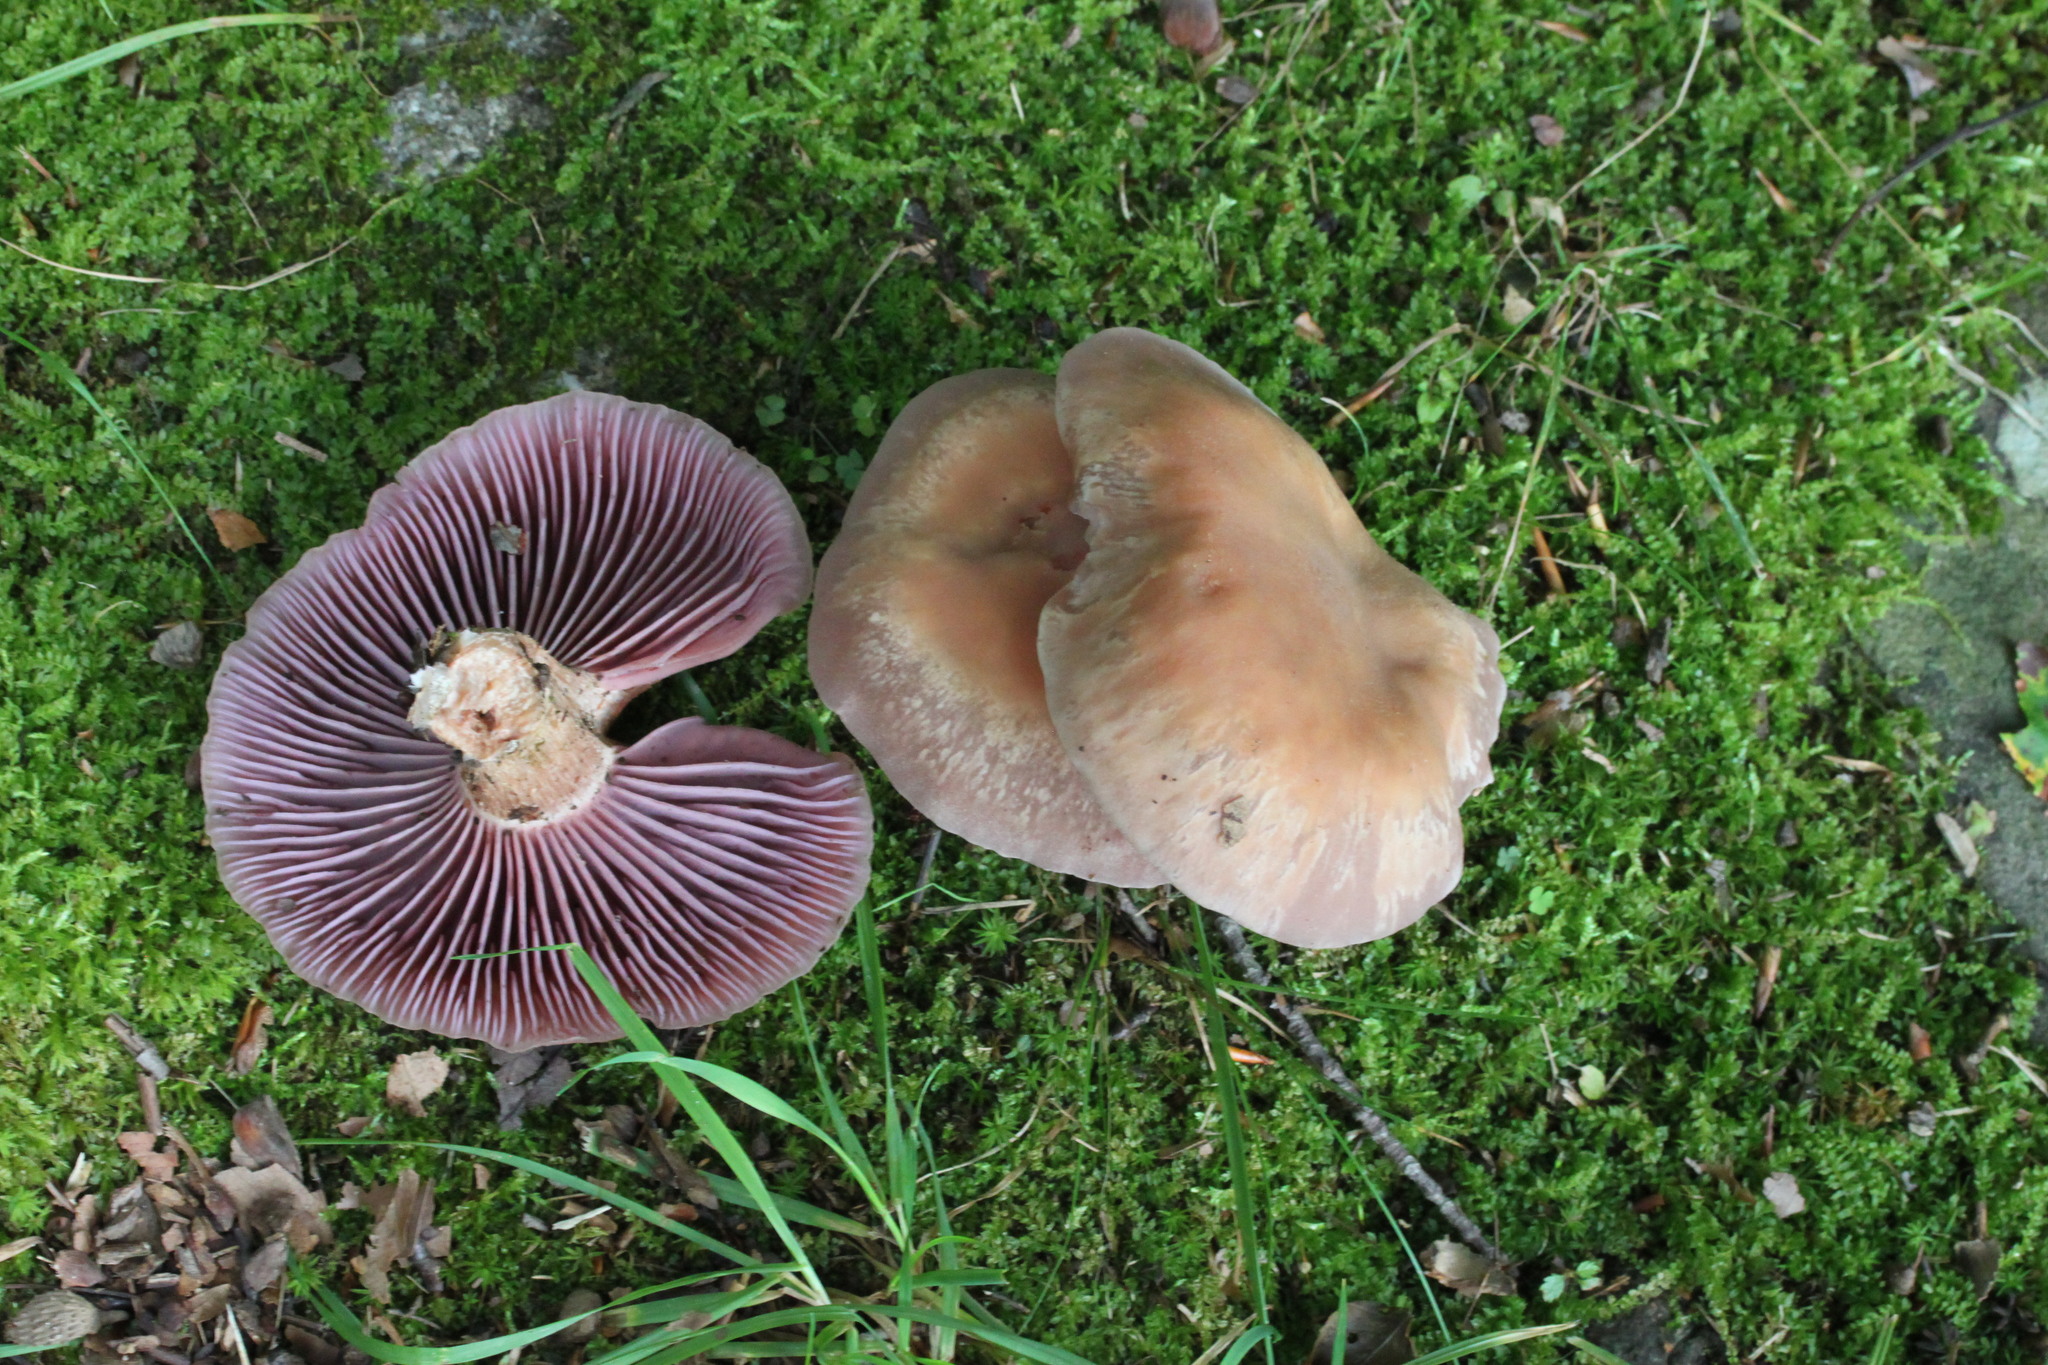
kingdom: Fungi
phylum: Basidiomycota
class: Agaricomycetes
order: Agaricales
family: Hydnangiaceae
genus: Laccaria
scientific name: Laccaria ochropurpurea
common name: Purple laccaria
